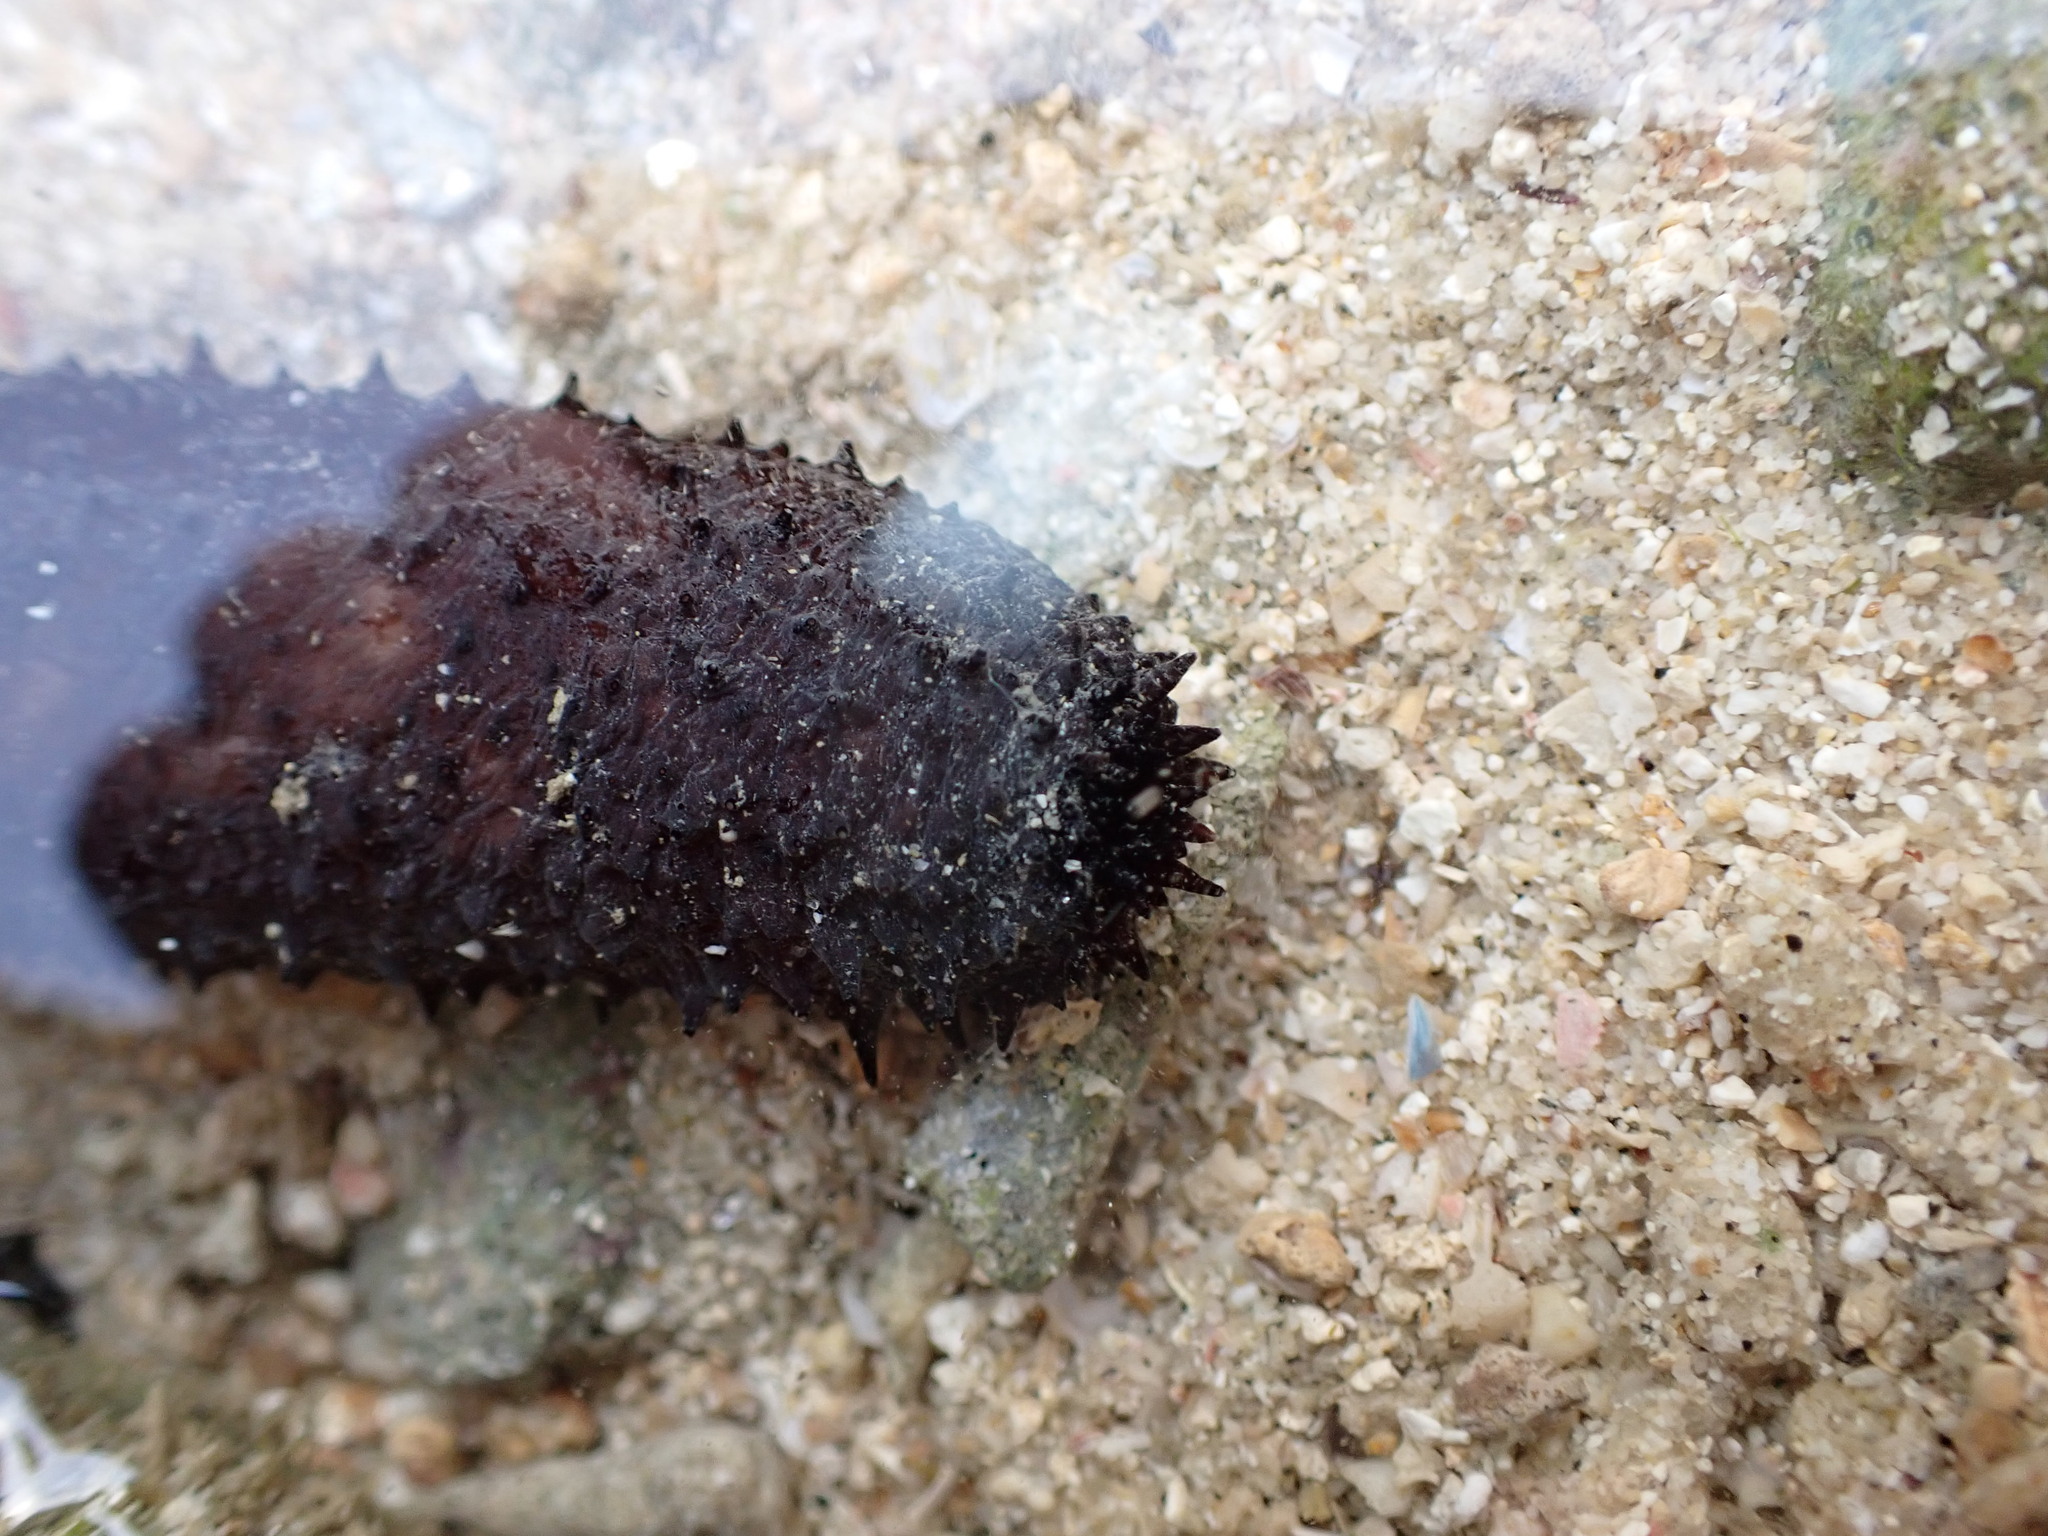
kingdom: Animalia
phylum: Echinodermata
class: Holothuroidea
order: Holothuriida
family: Holothuriidae
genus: Holothuria
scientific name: Holothuria leucospilota
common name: White thread fish
